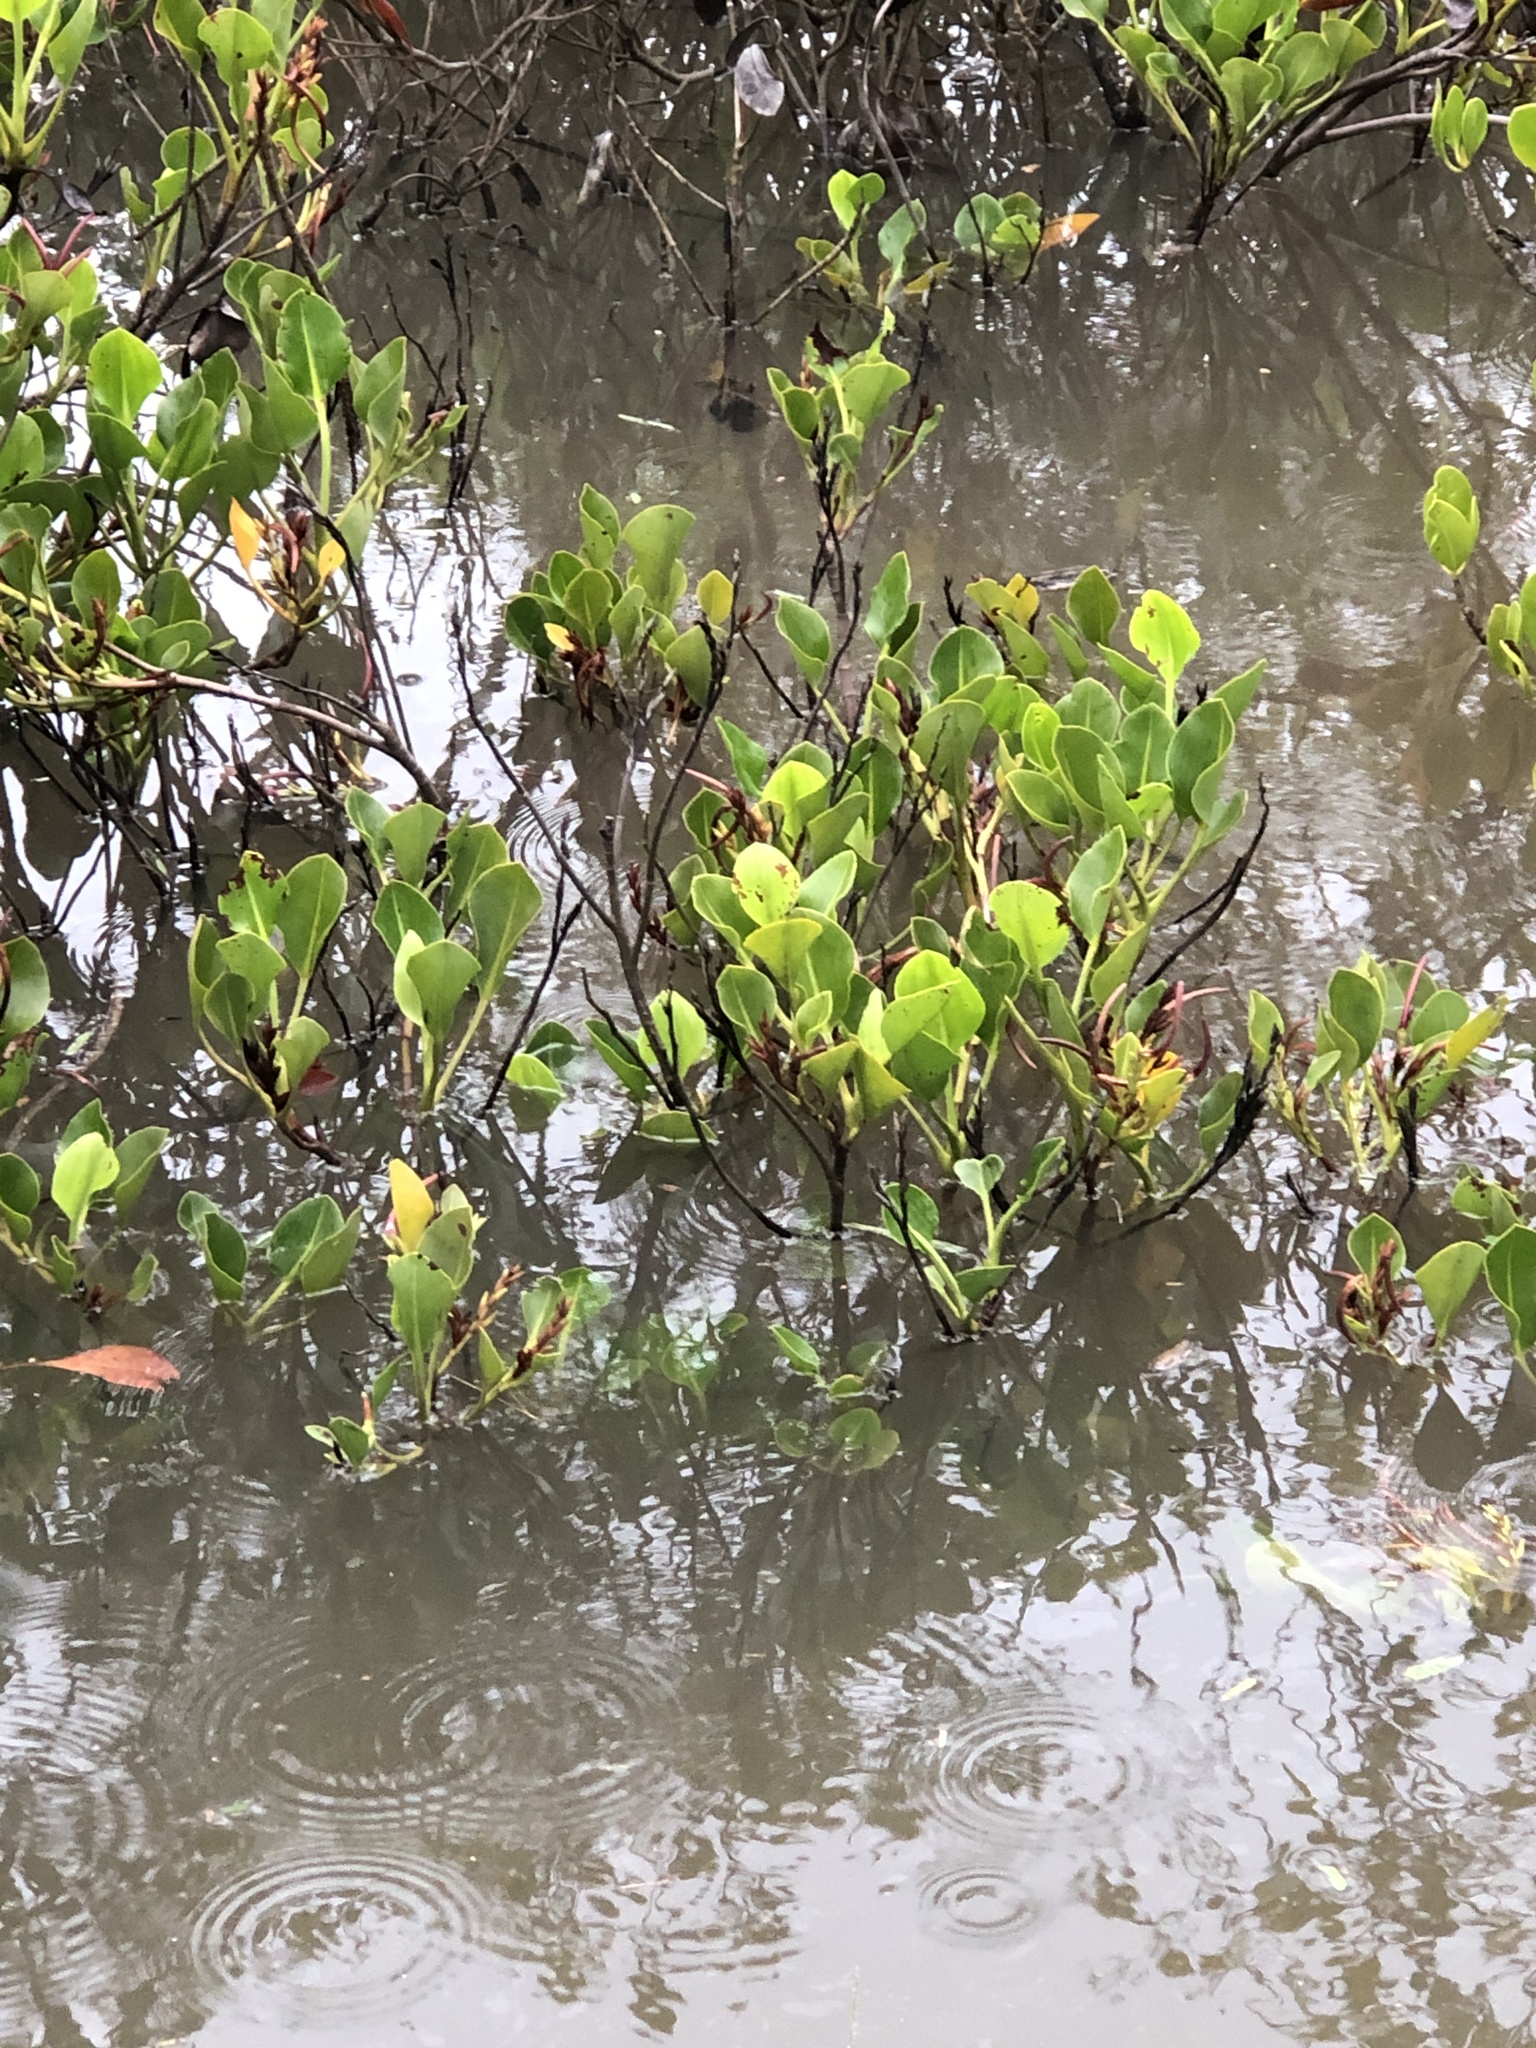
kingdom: Plantae
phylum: Tracheophyta
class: Magnoliopsida
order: Caryophyllales
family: Plumbaginaceae
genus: Aegialitis
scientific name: Aegialitis annulata
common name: Club mangrove
